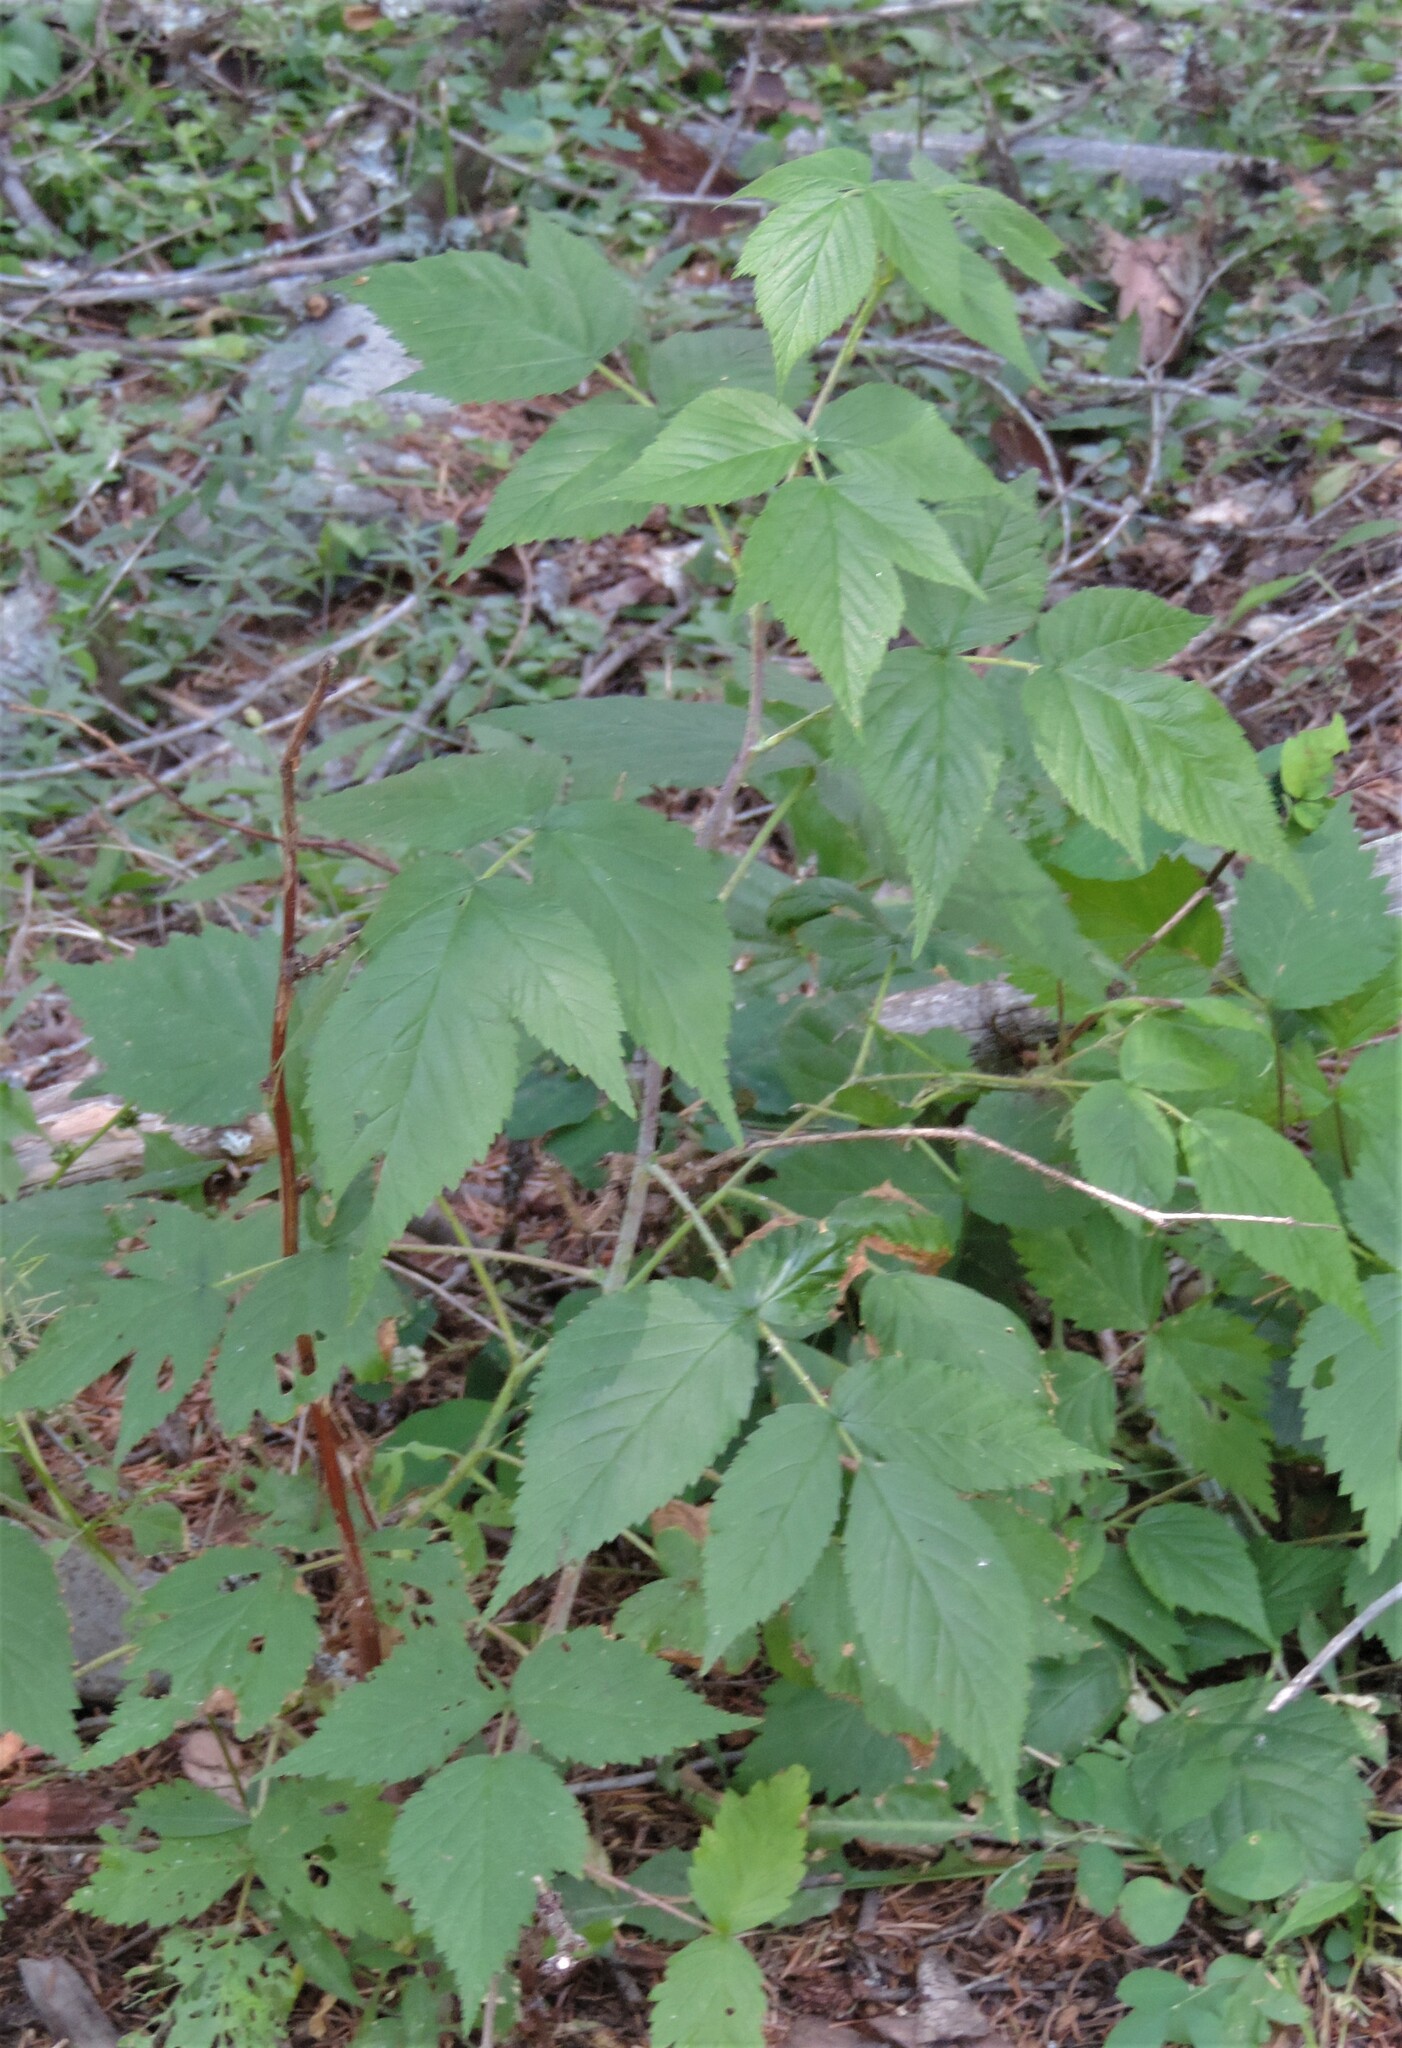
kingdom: Plantae
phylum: Tracheophyta
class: Magnoliopsida
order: Rosales
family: Rosaceae
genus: Rubus
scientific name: Rubus idaeus
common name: Raspberry
